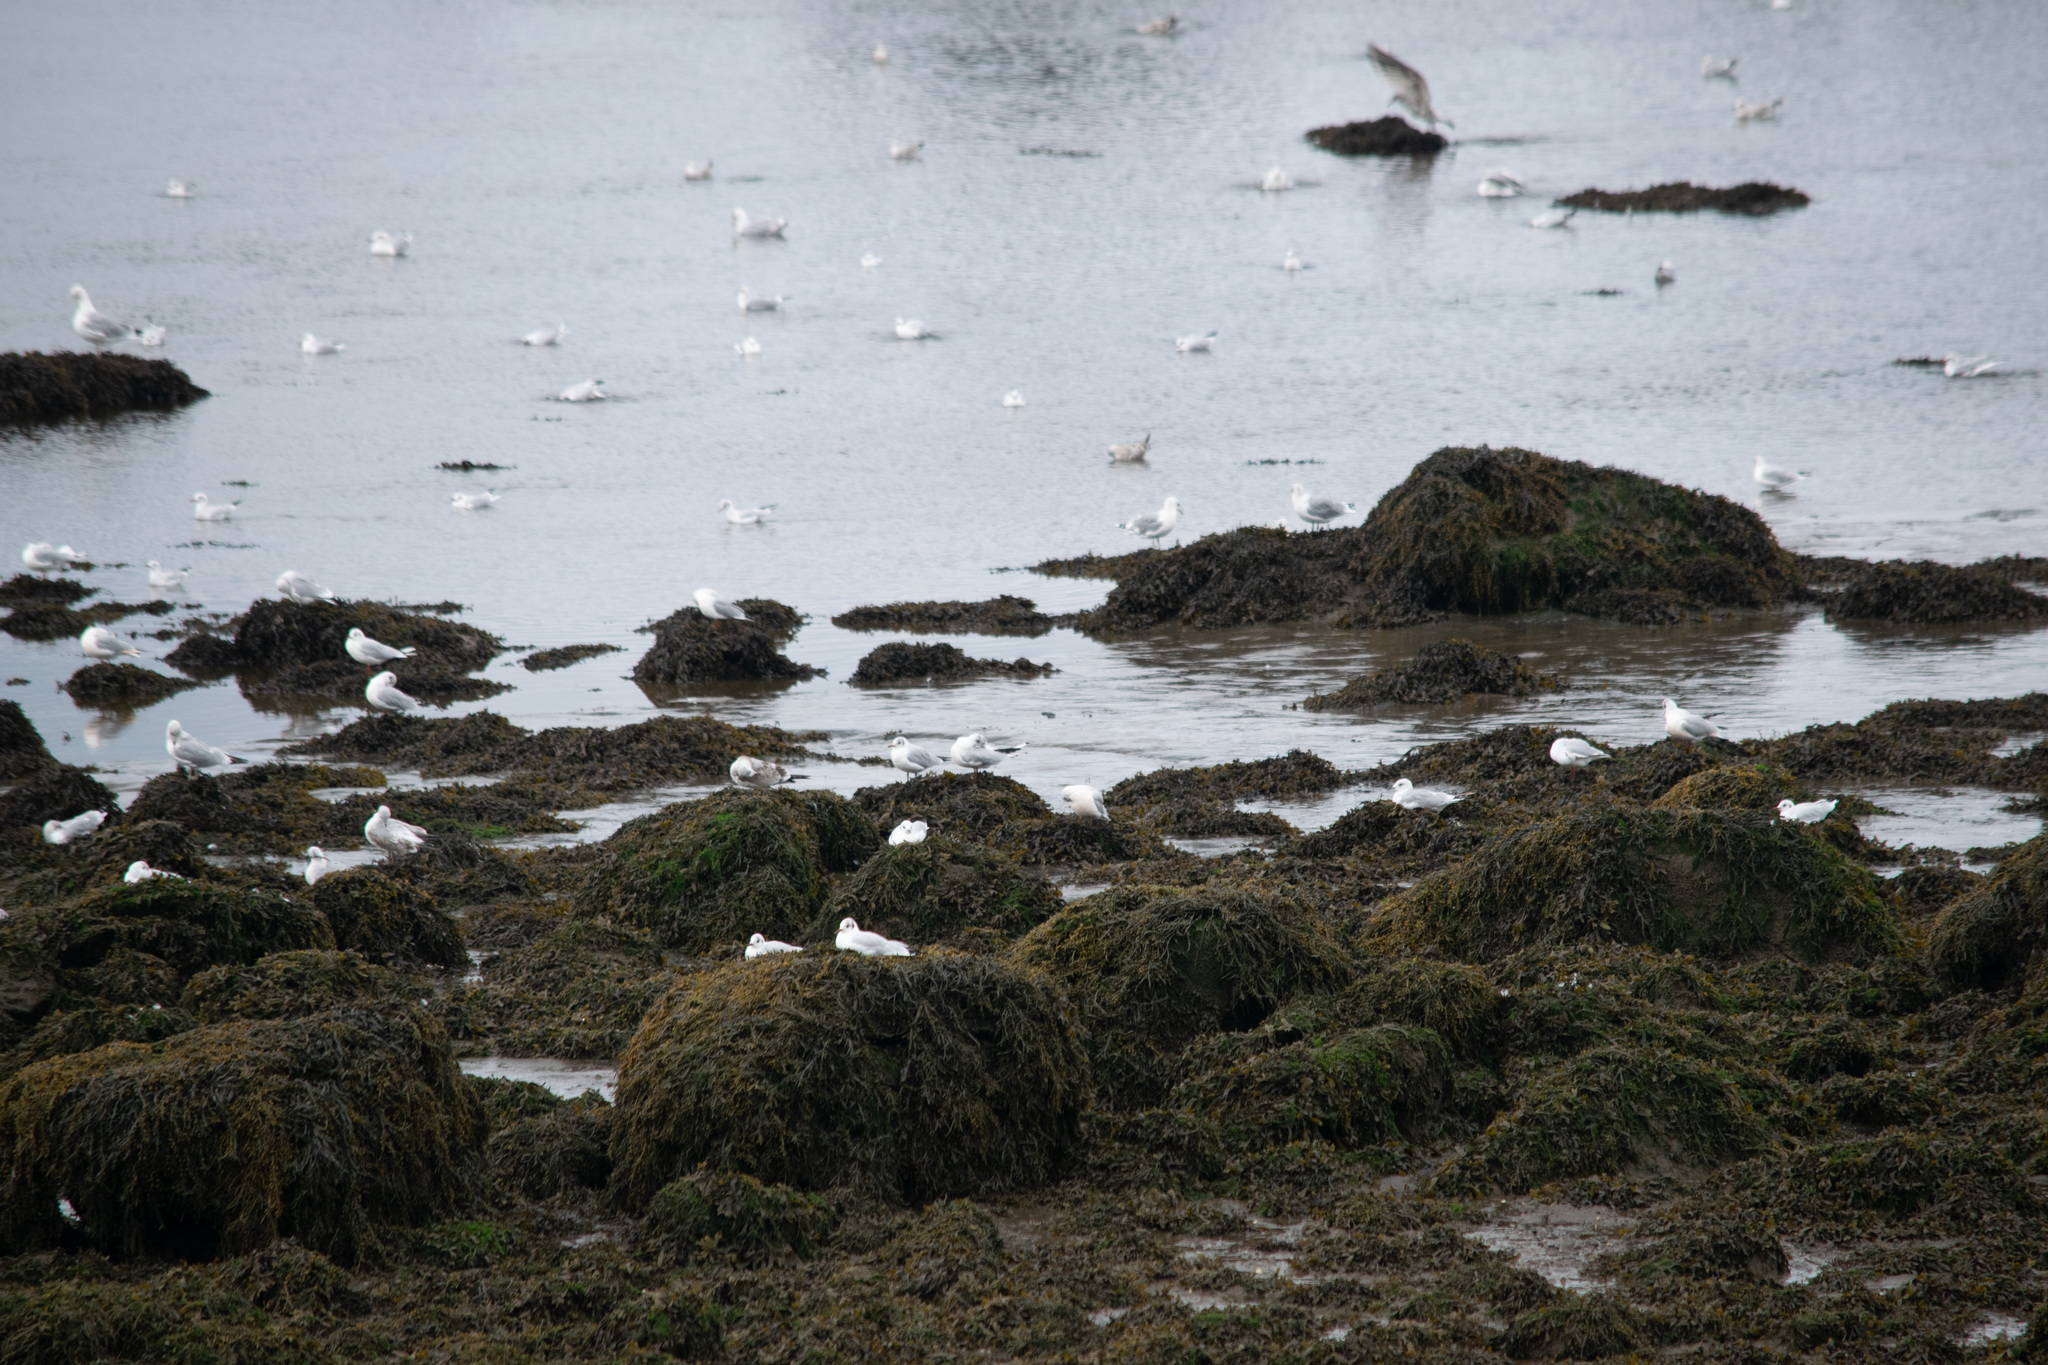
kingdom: Animalia
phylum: Chordata
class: Aves
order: Charadriiformes
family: Laridae
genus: Chroicocephalus
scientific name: Chroicocephalus ridibundus
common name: Black-headed gull
